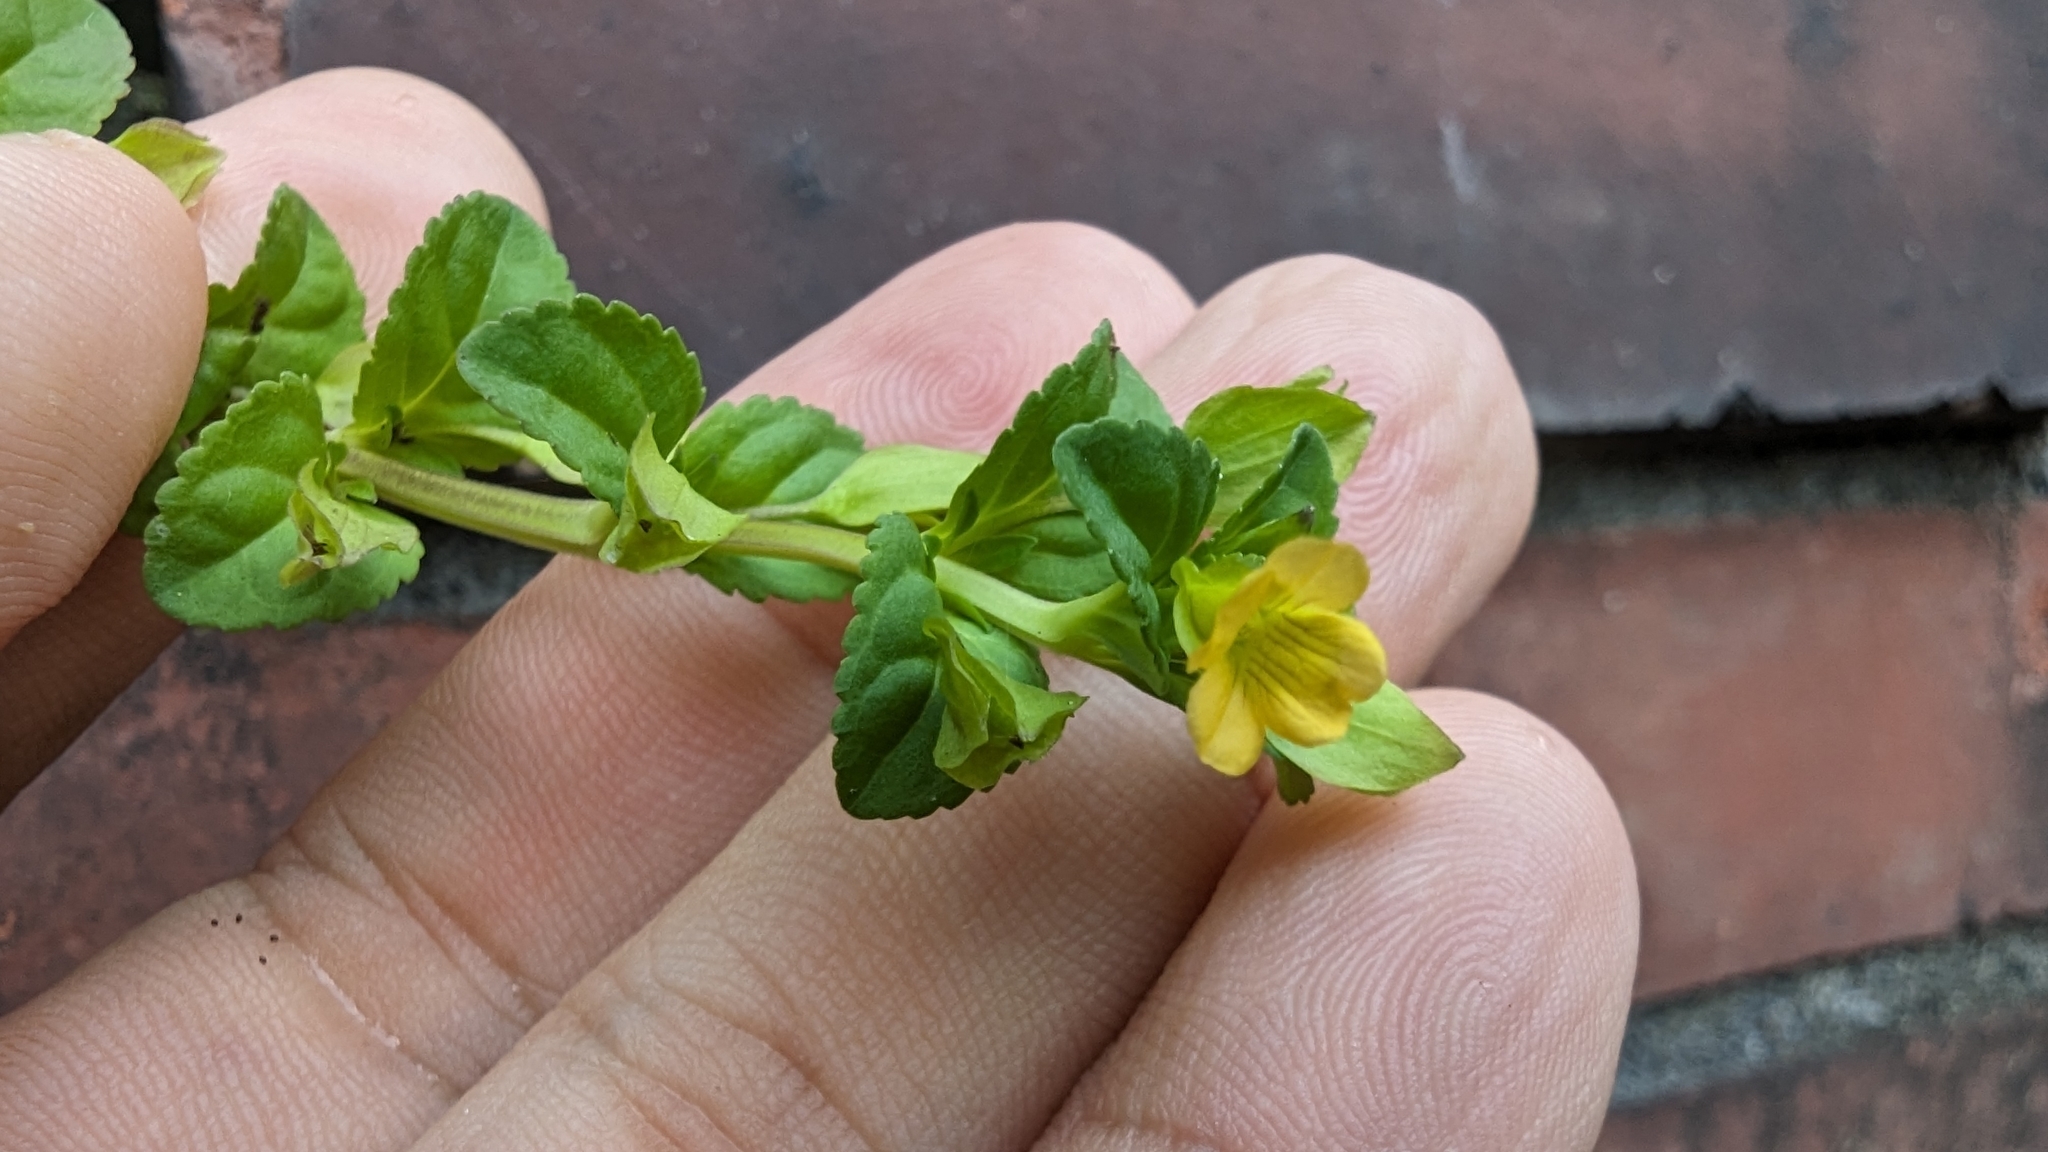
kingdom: Plantae
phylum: Tracheophyta
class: Magnoliopsida
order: Lamiales
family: Plantaginaceae
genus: Mecardonia
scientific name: Mecardonia procumbens
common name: Baby jump-up
